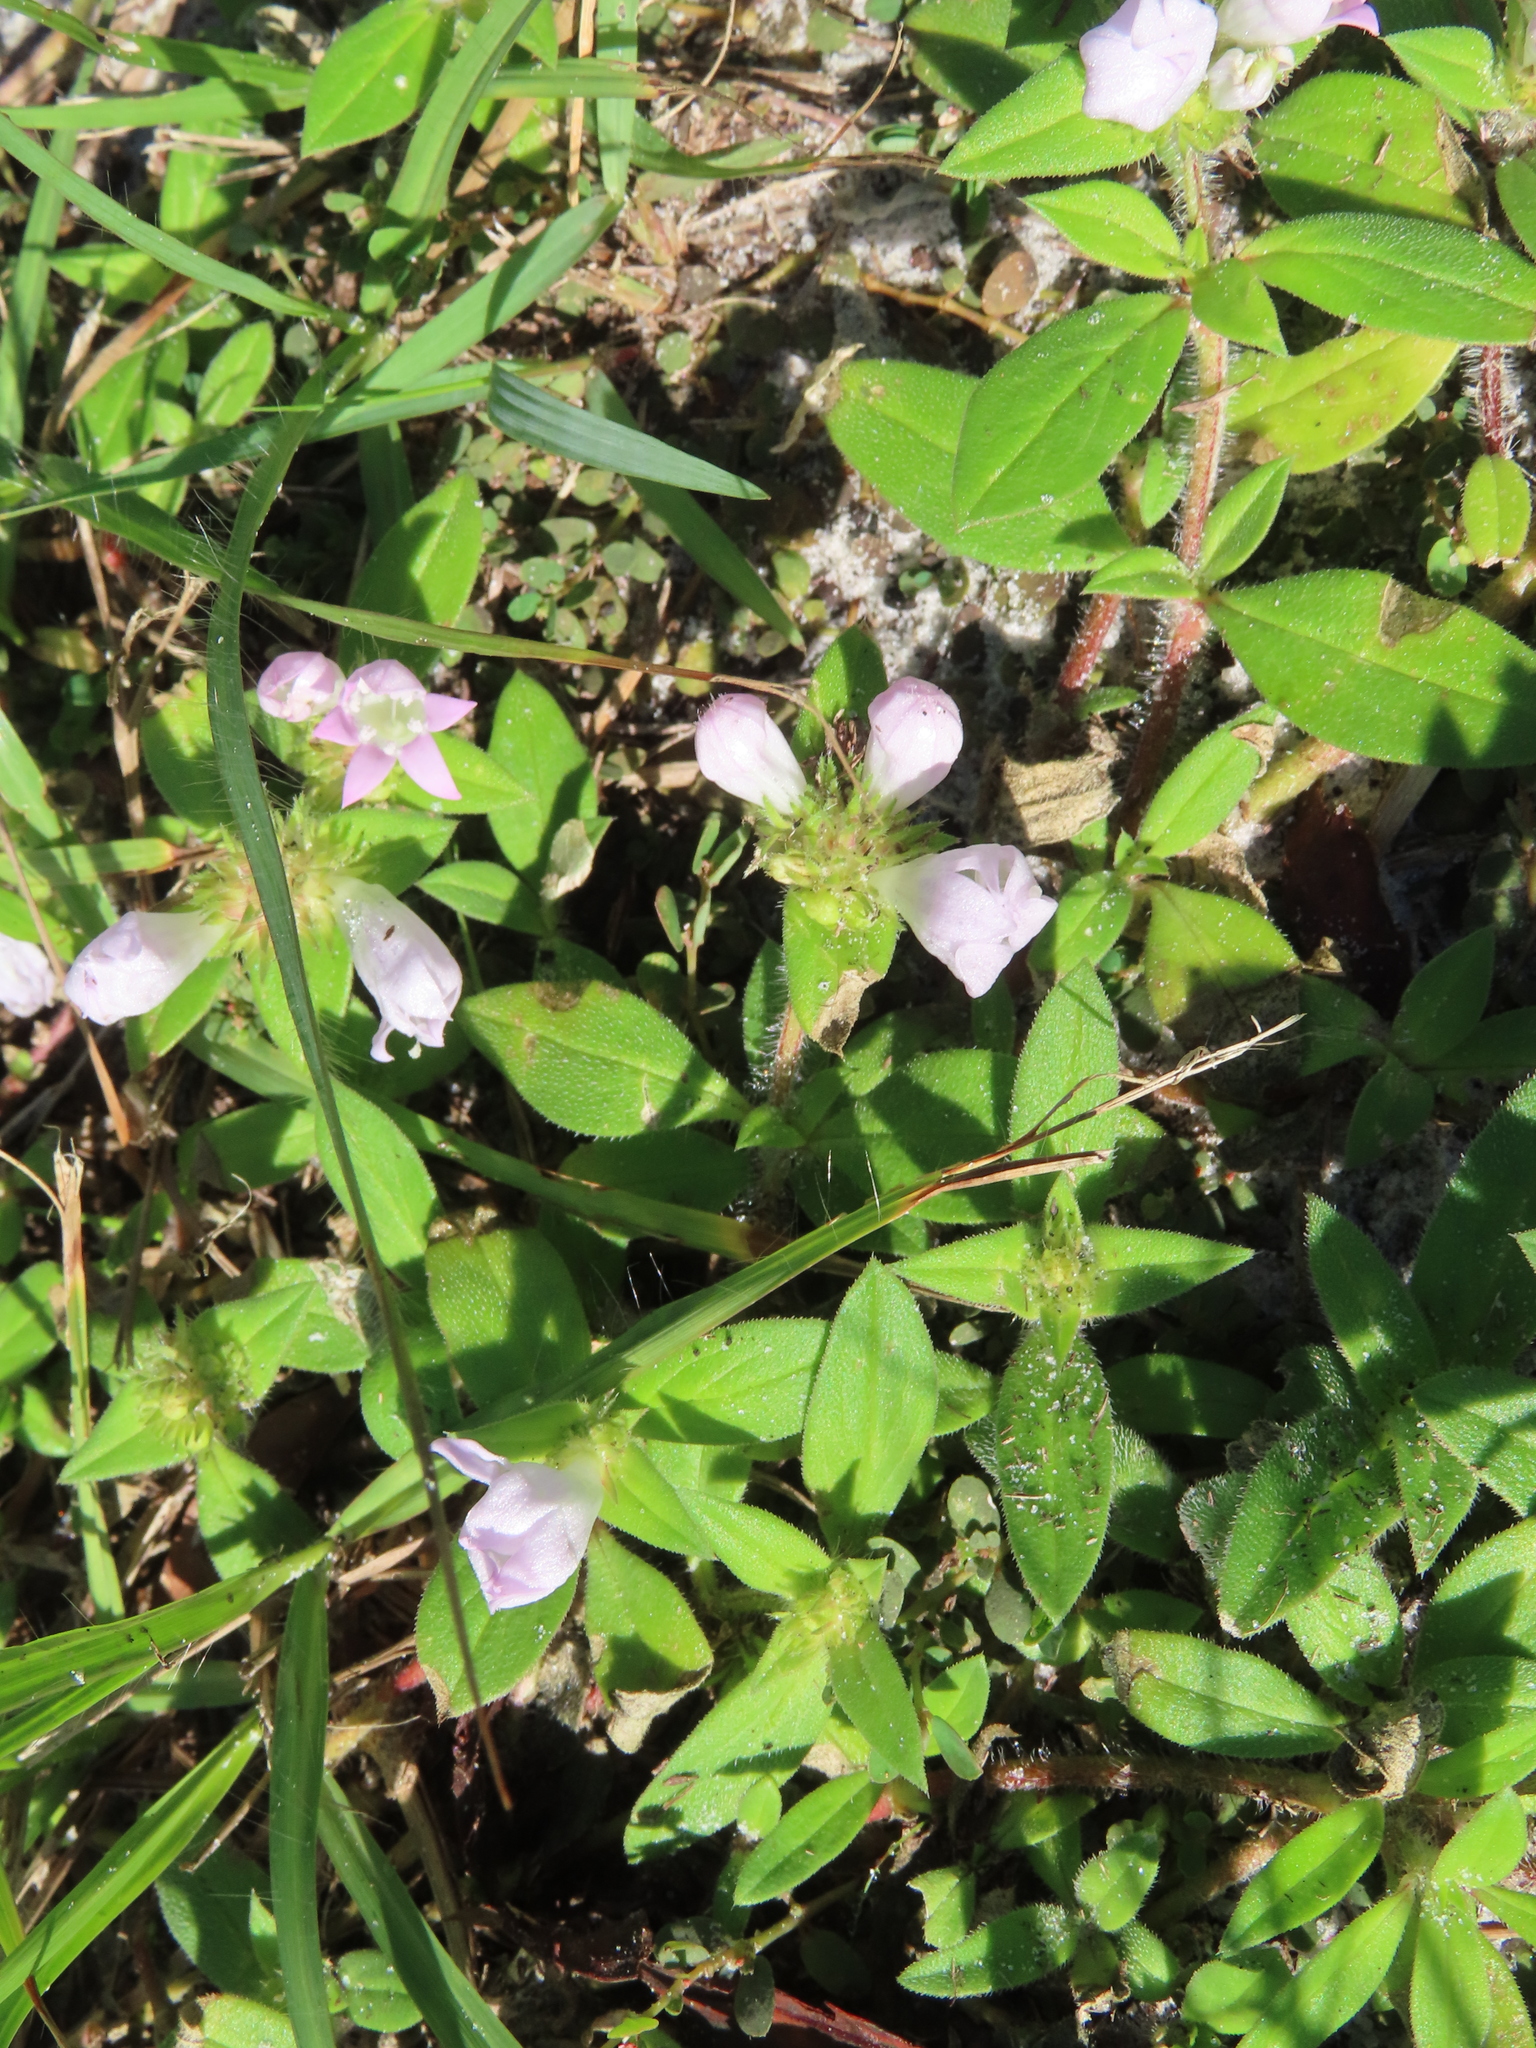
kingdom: Plantae
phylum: Tracheophyta
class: Magnoliopsida
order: Gentianales
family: Rubiaceae
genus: Richardia
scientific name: Richardia grandiflora
